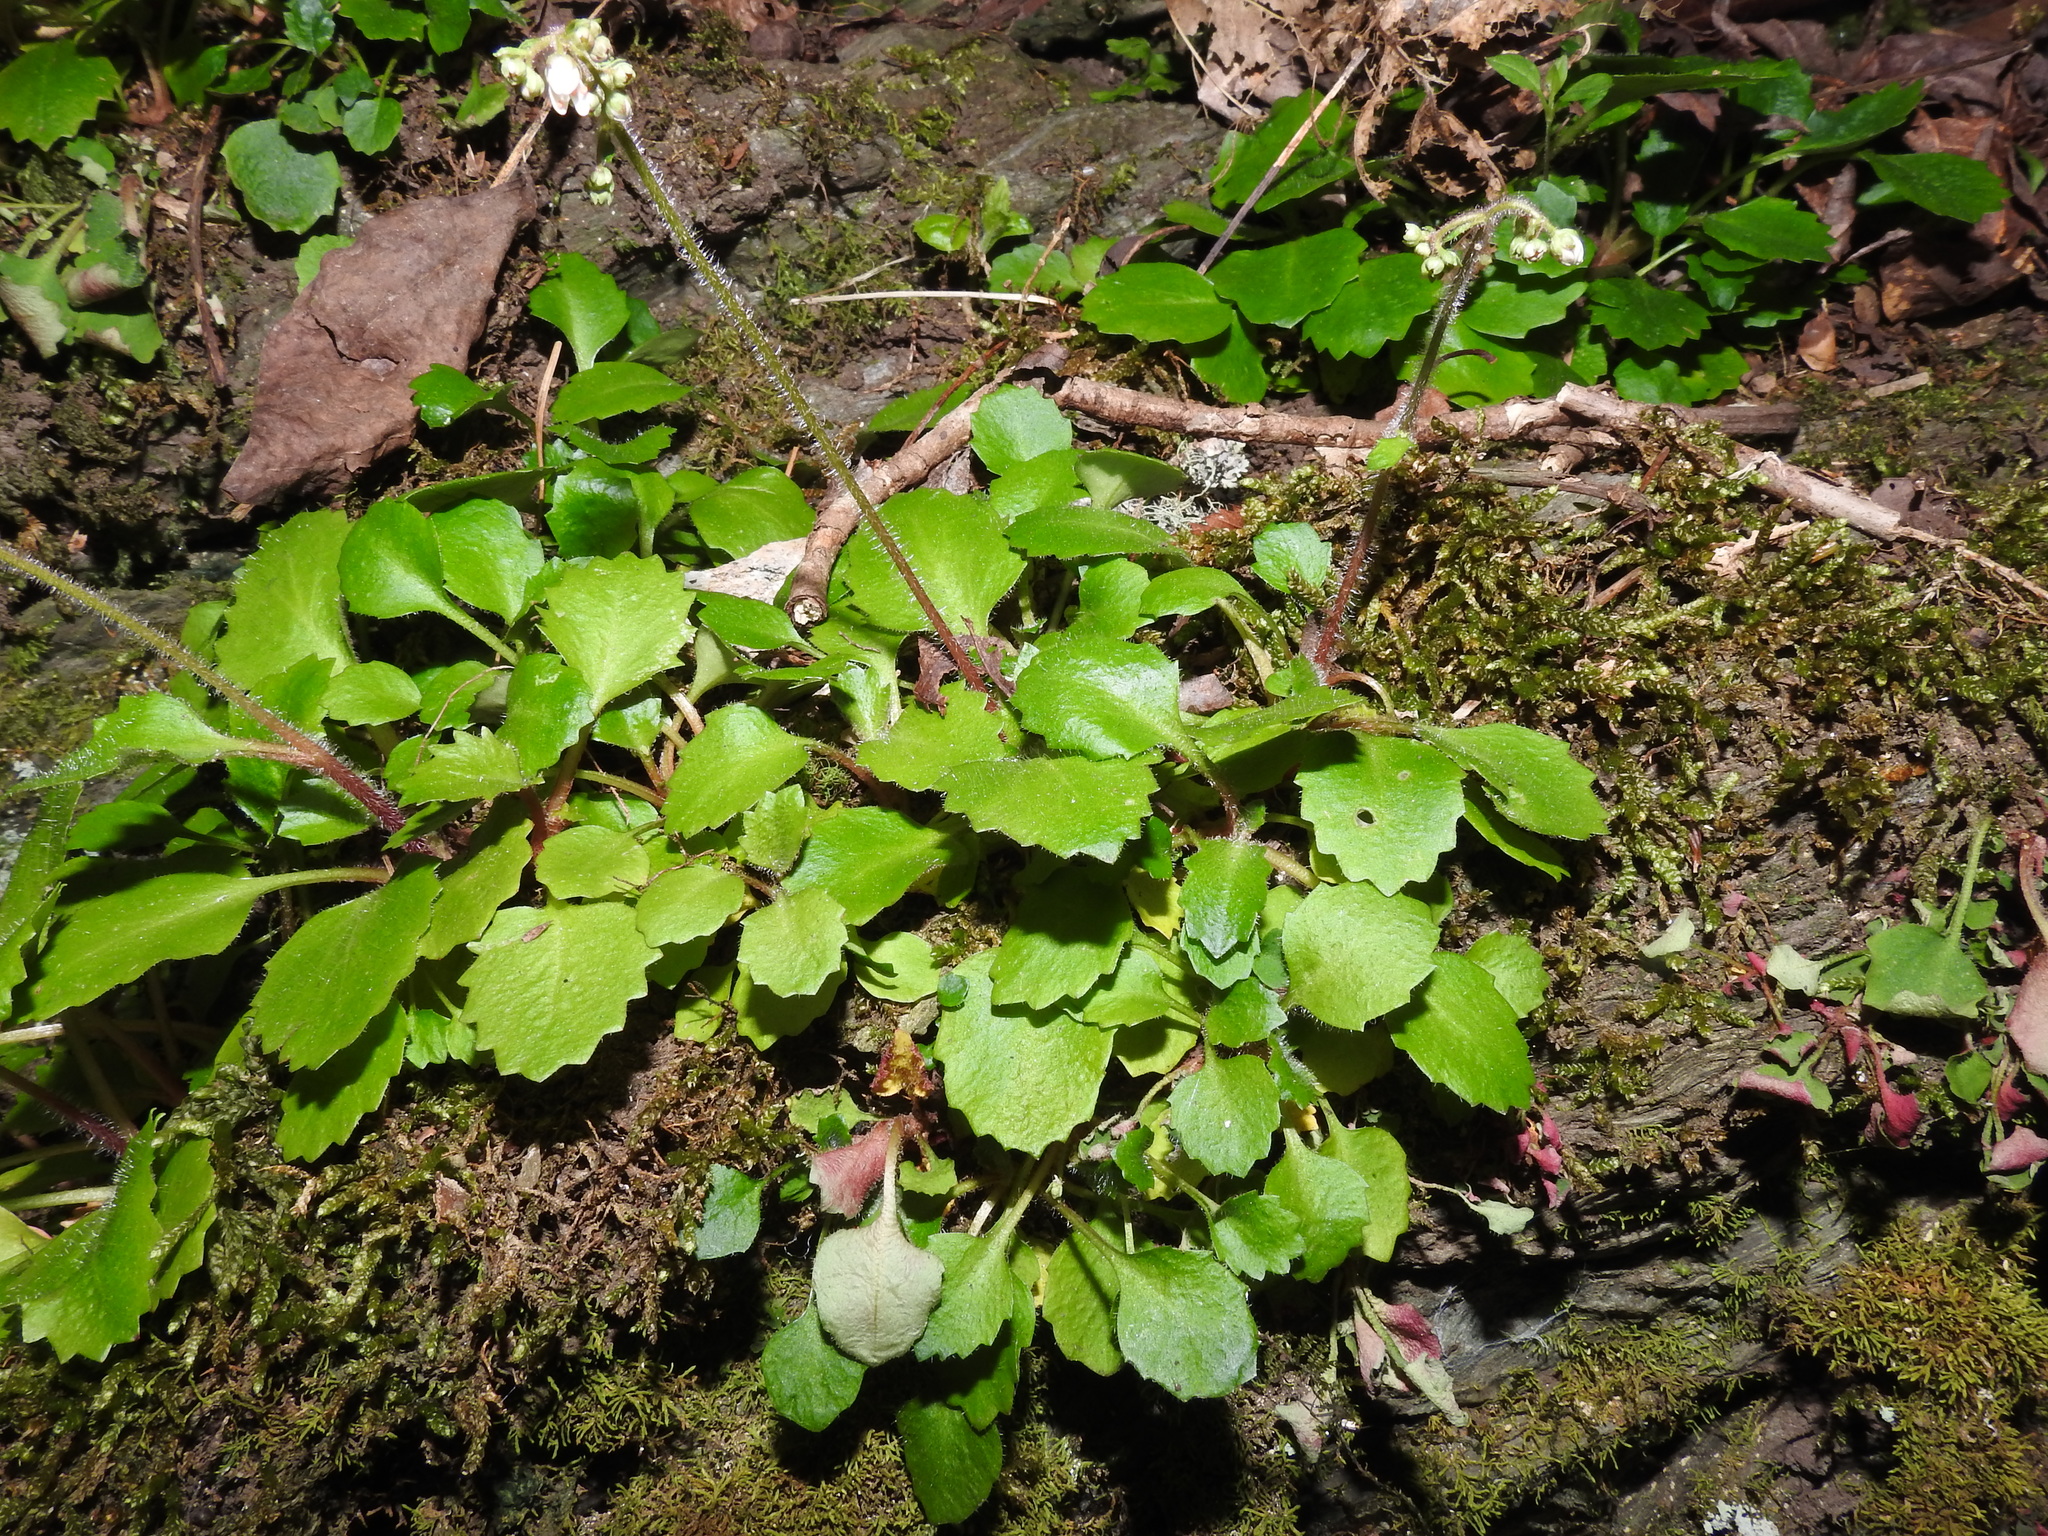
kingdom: Plantae
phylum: Tracheophyta
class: Magnoliopsida
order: Saxifragales
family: Saxifragaceae
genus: Micranthes
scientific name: Micranthes petiolaris
